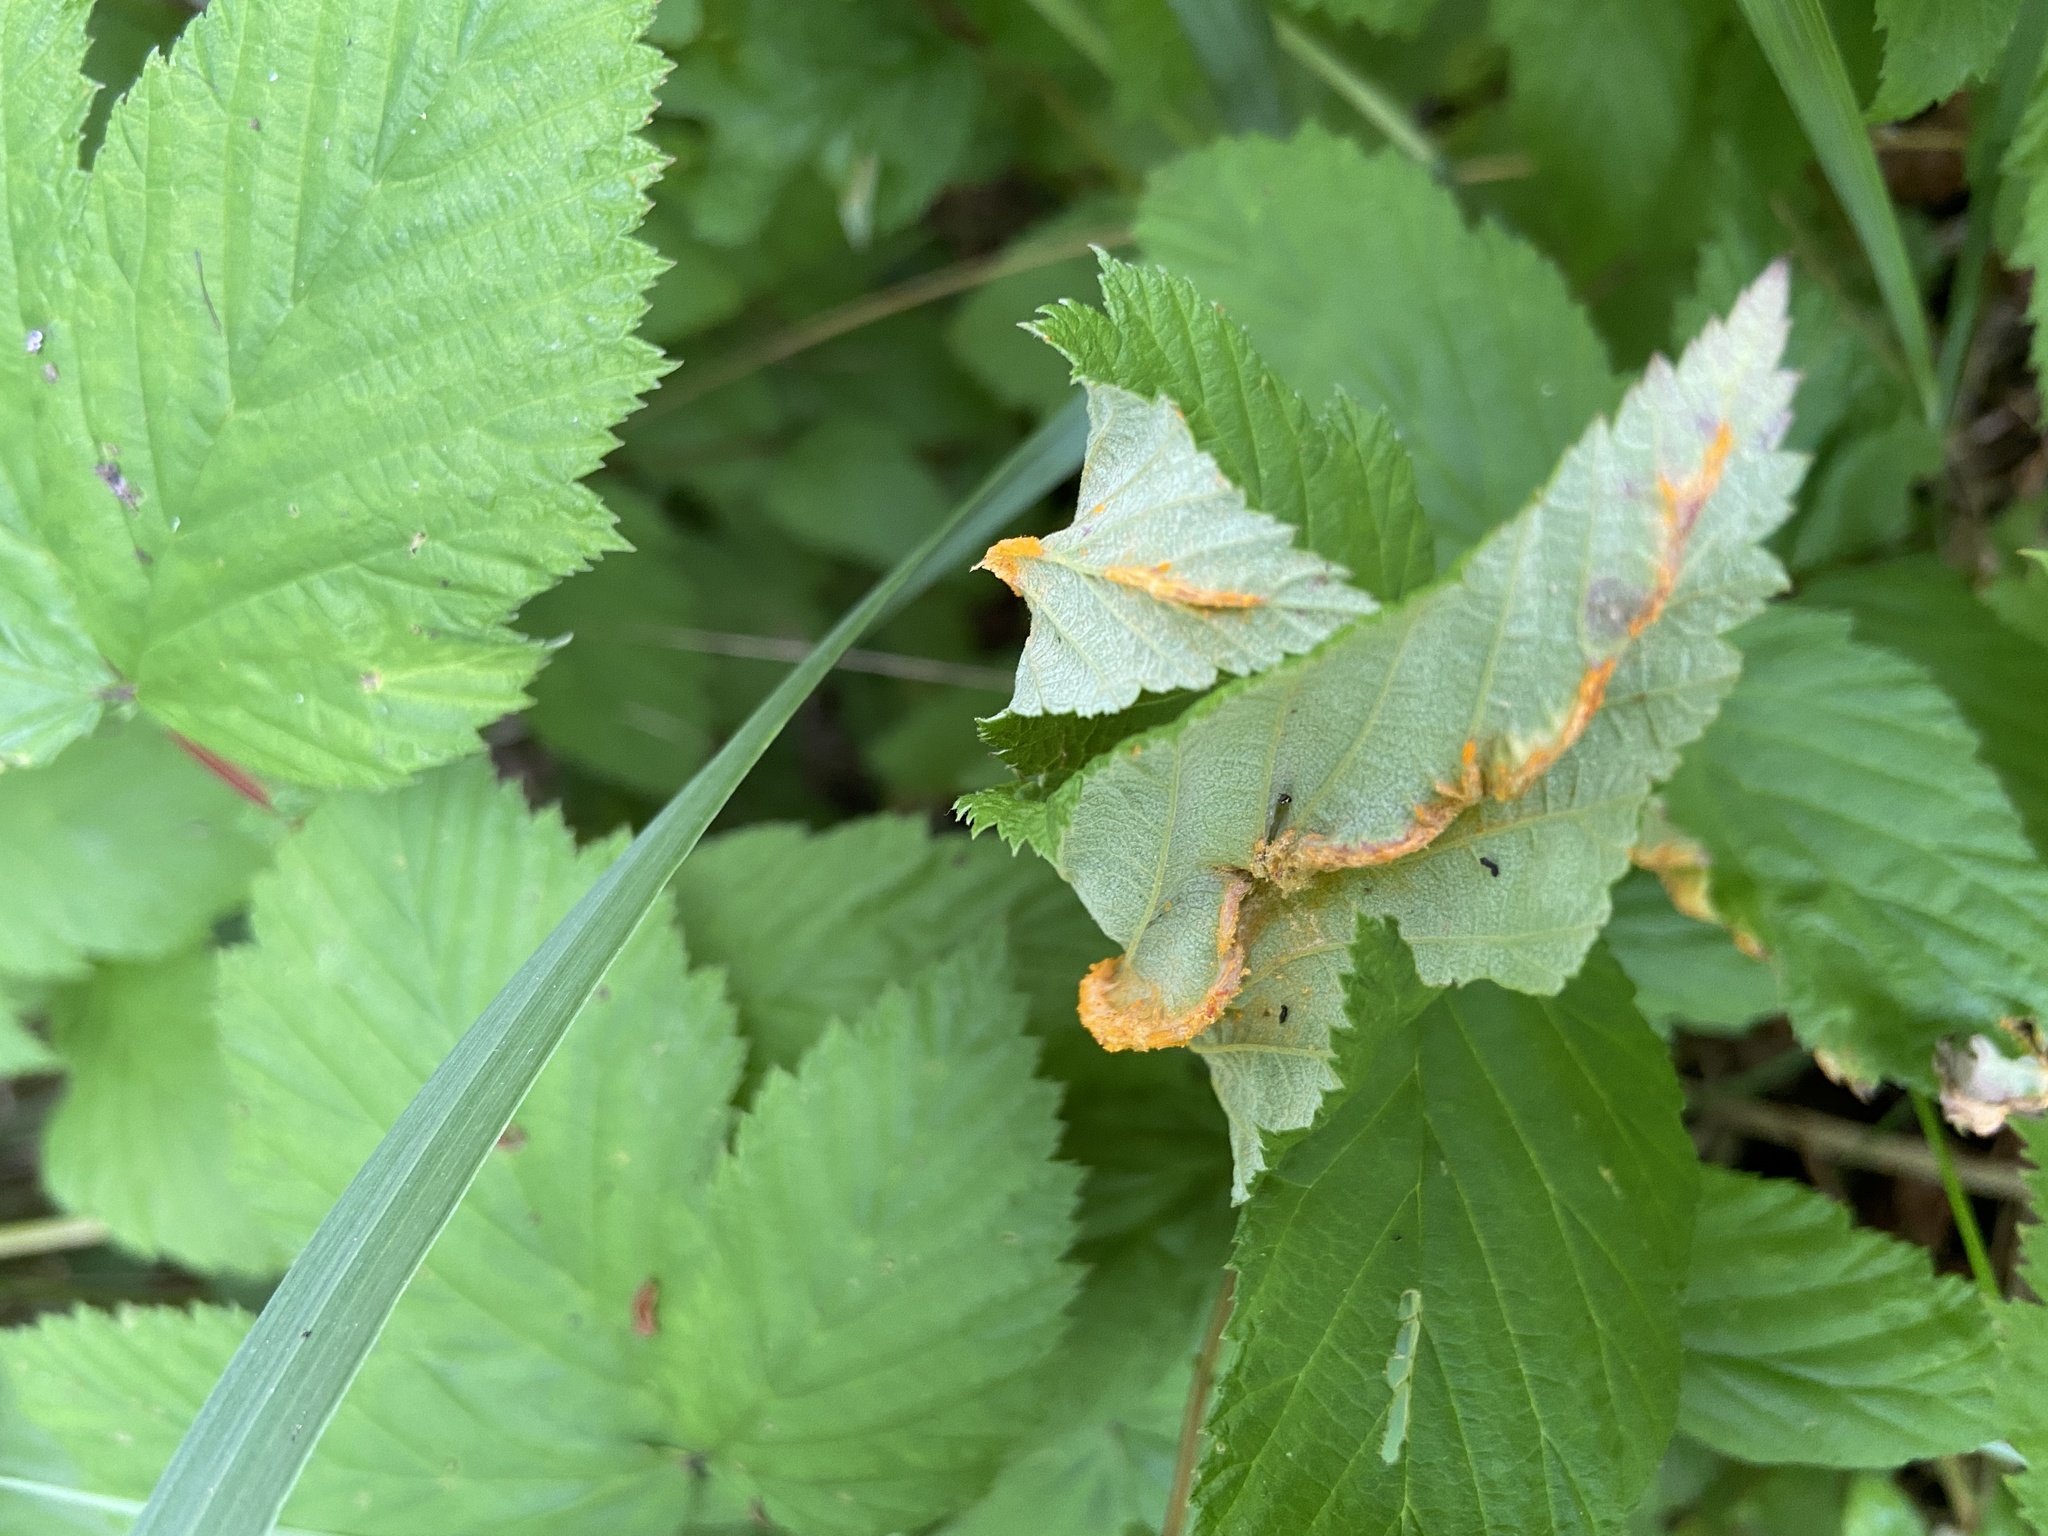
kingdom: Fungi
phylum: Basidiomycota
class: Pucciniomycetes
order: Pucciniales
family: Raveneliaceae
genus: Triphragmium
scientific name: Triphragmium ulmariae
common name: Meadowsweet rust
